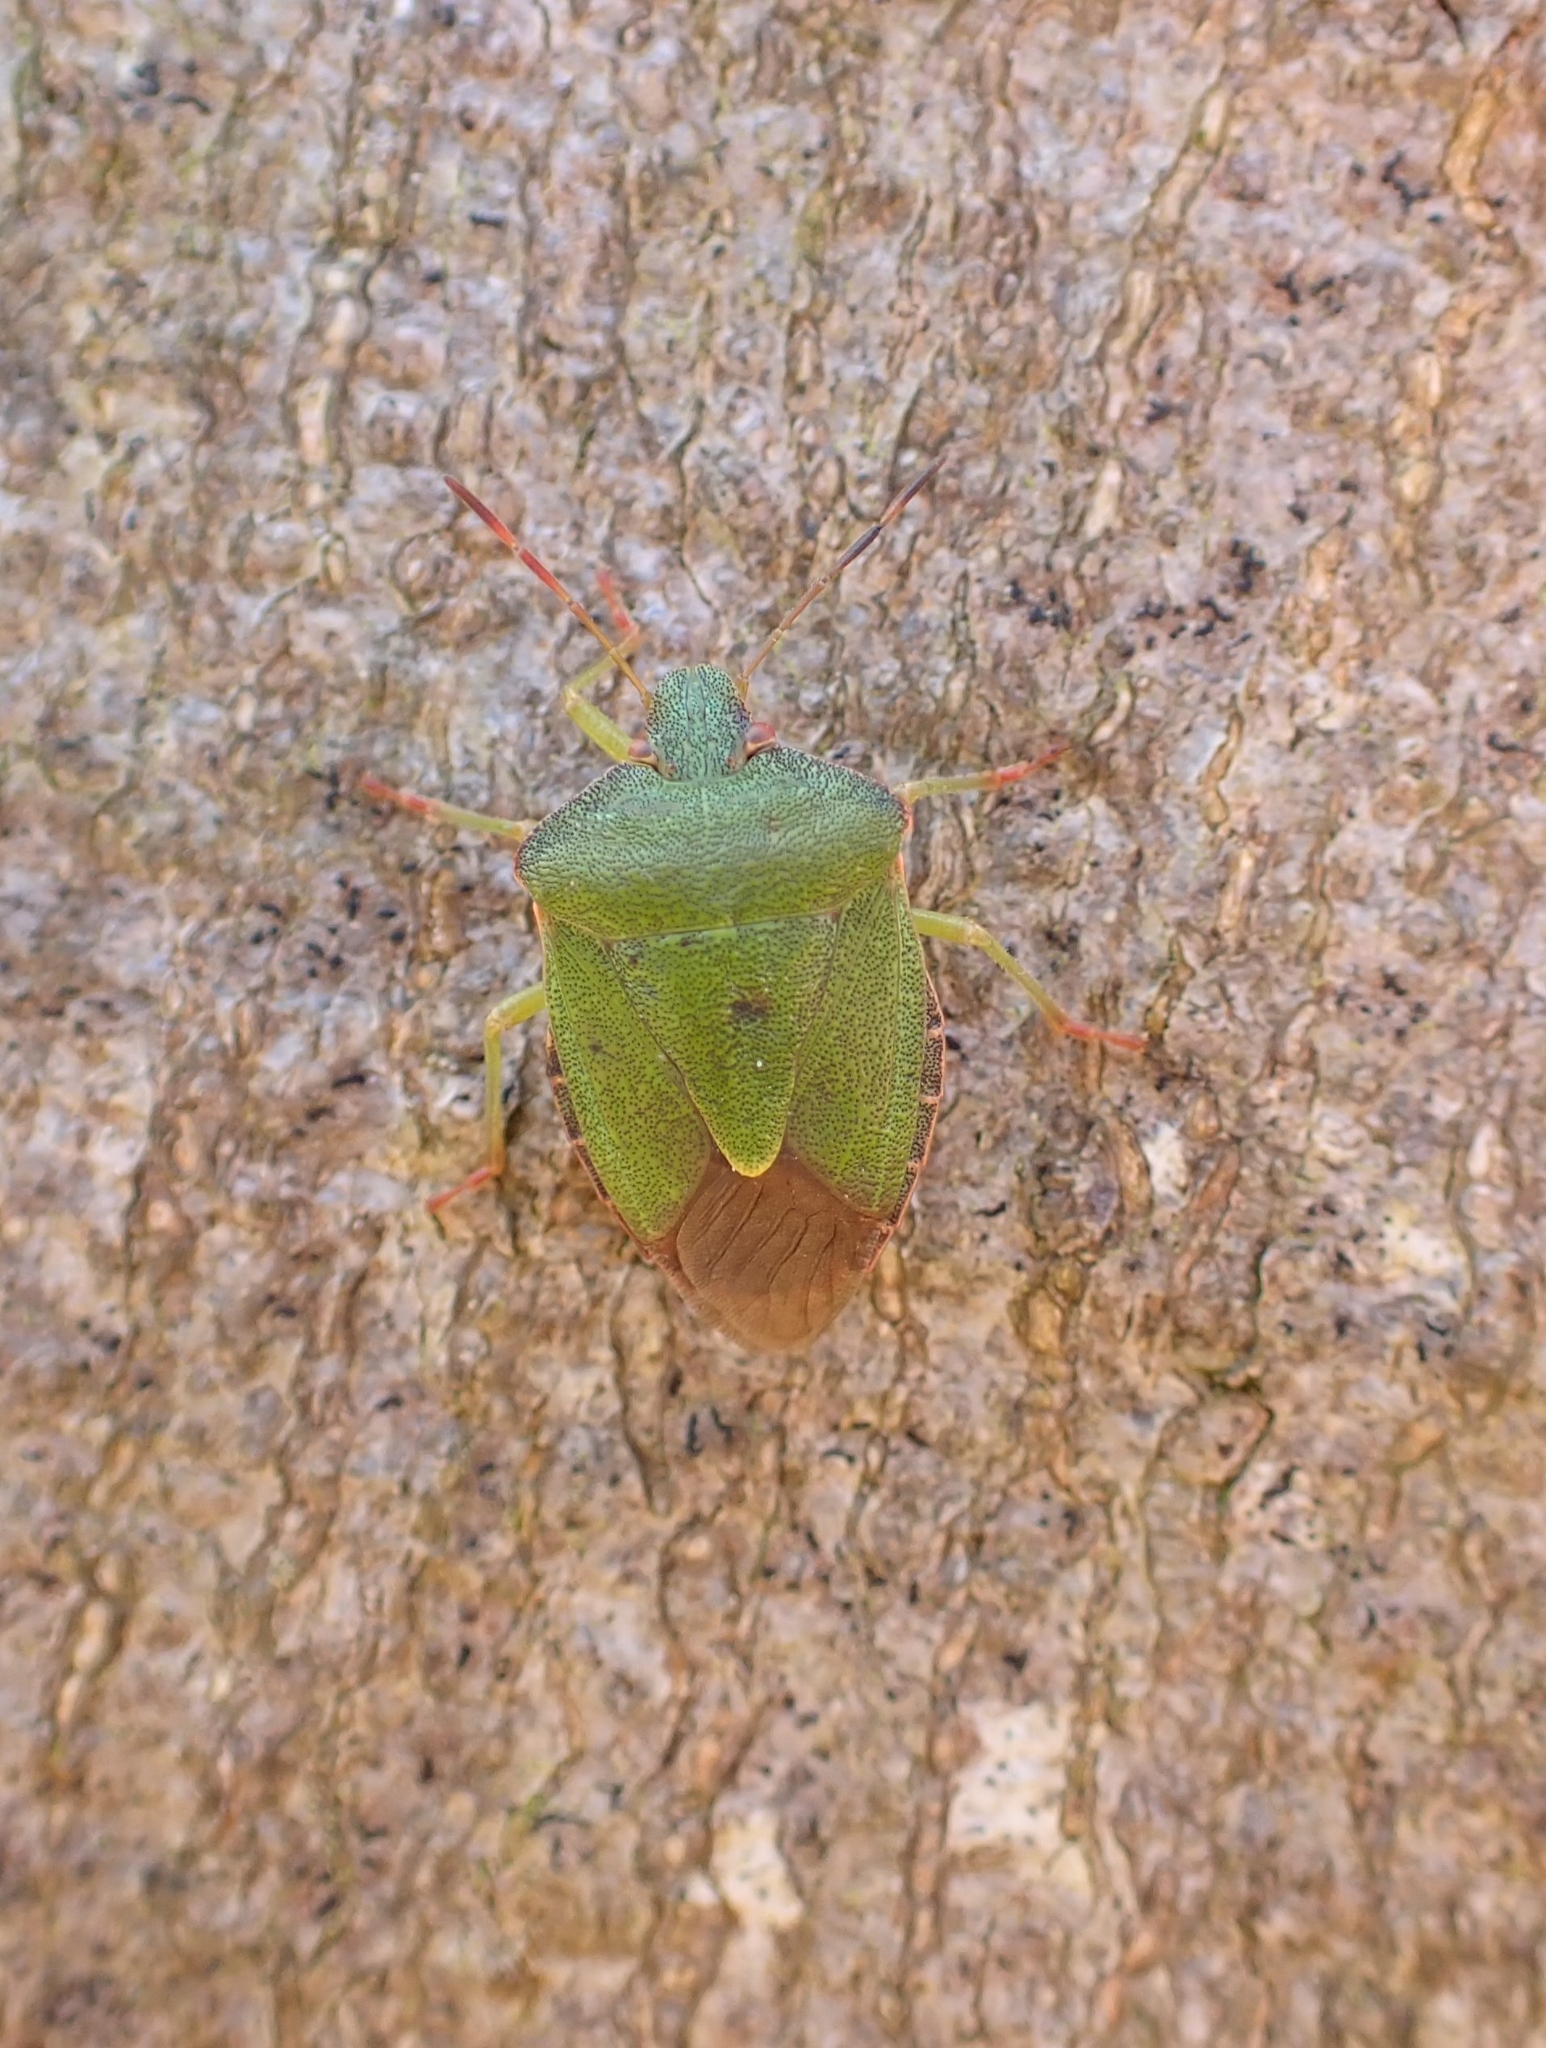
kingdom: Animalia
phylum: Arthropoda
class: Insecta
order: Hemiptera
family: Pentatomidae
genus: Palomena
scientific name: Palomena prasina
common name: Green shieldbug
